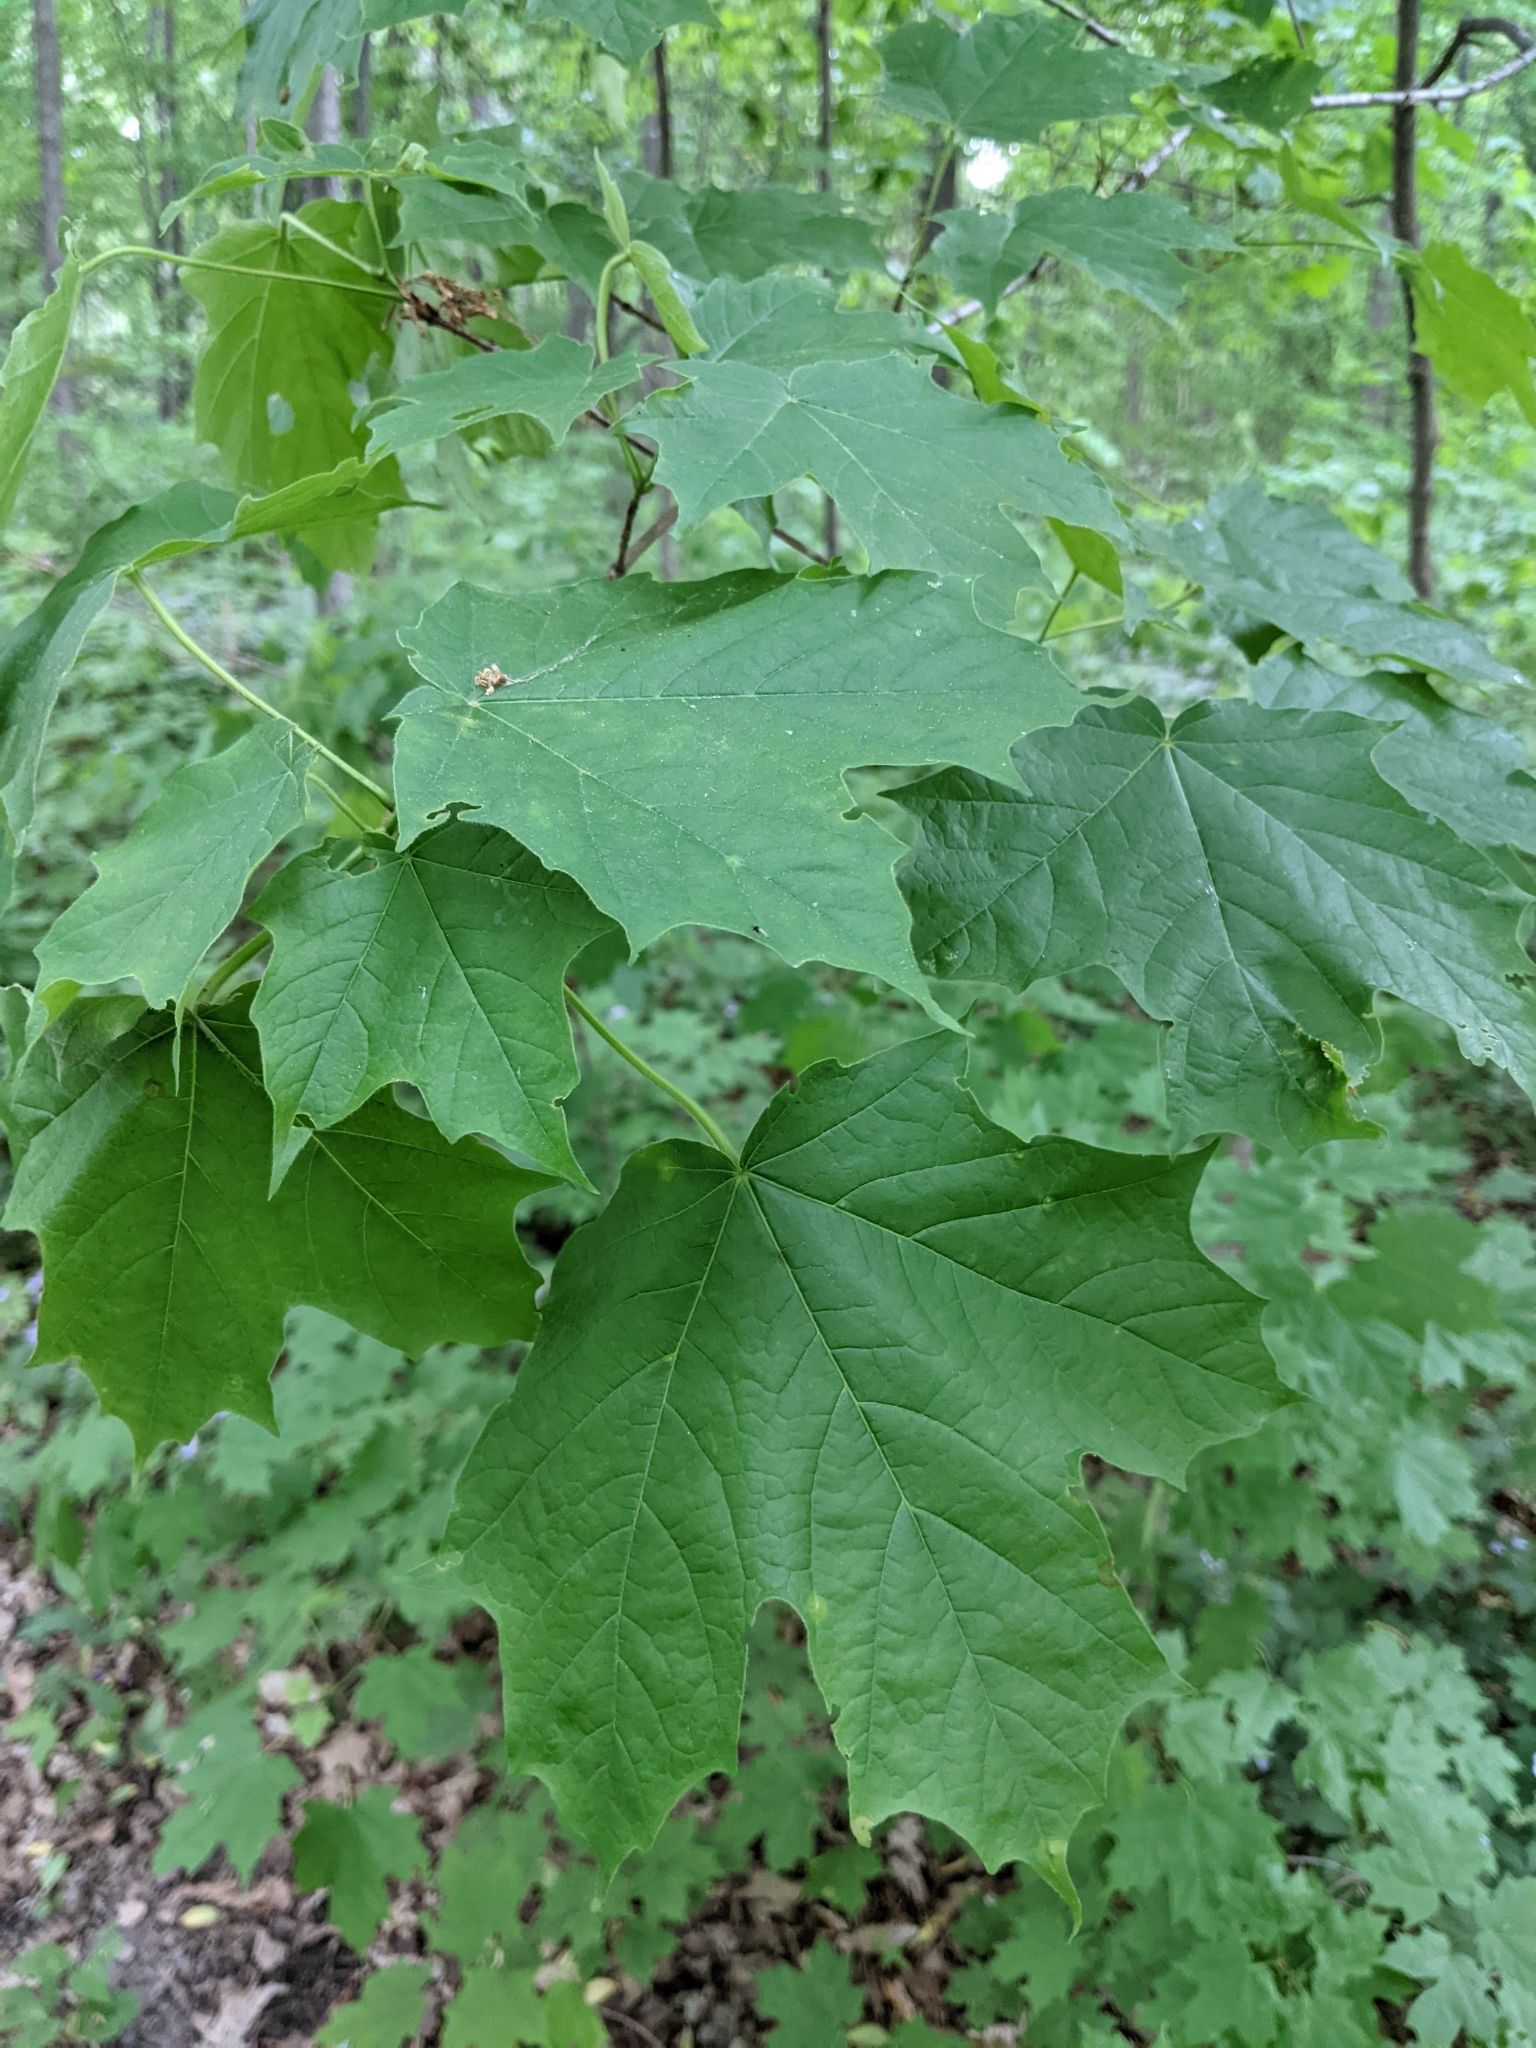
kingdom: Plantae
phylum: Tracheophyta
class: Magnoliopsida
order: Sapindales
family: Sapindaceae
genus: Acer
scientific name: Acer nigrum
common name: Black maple
